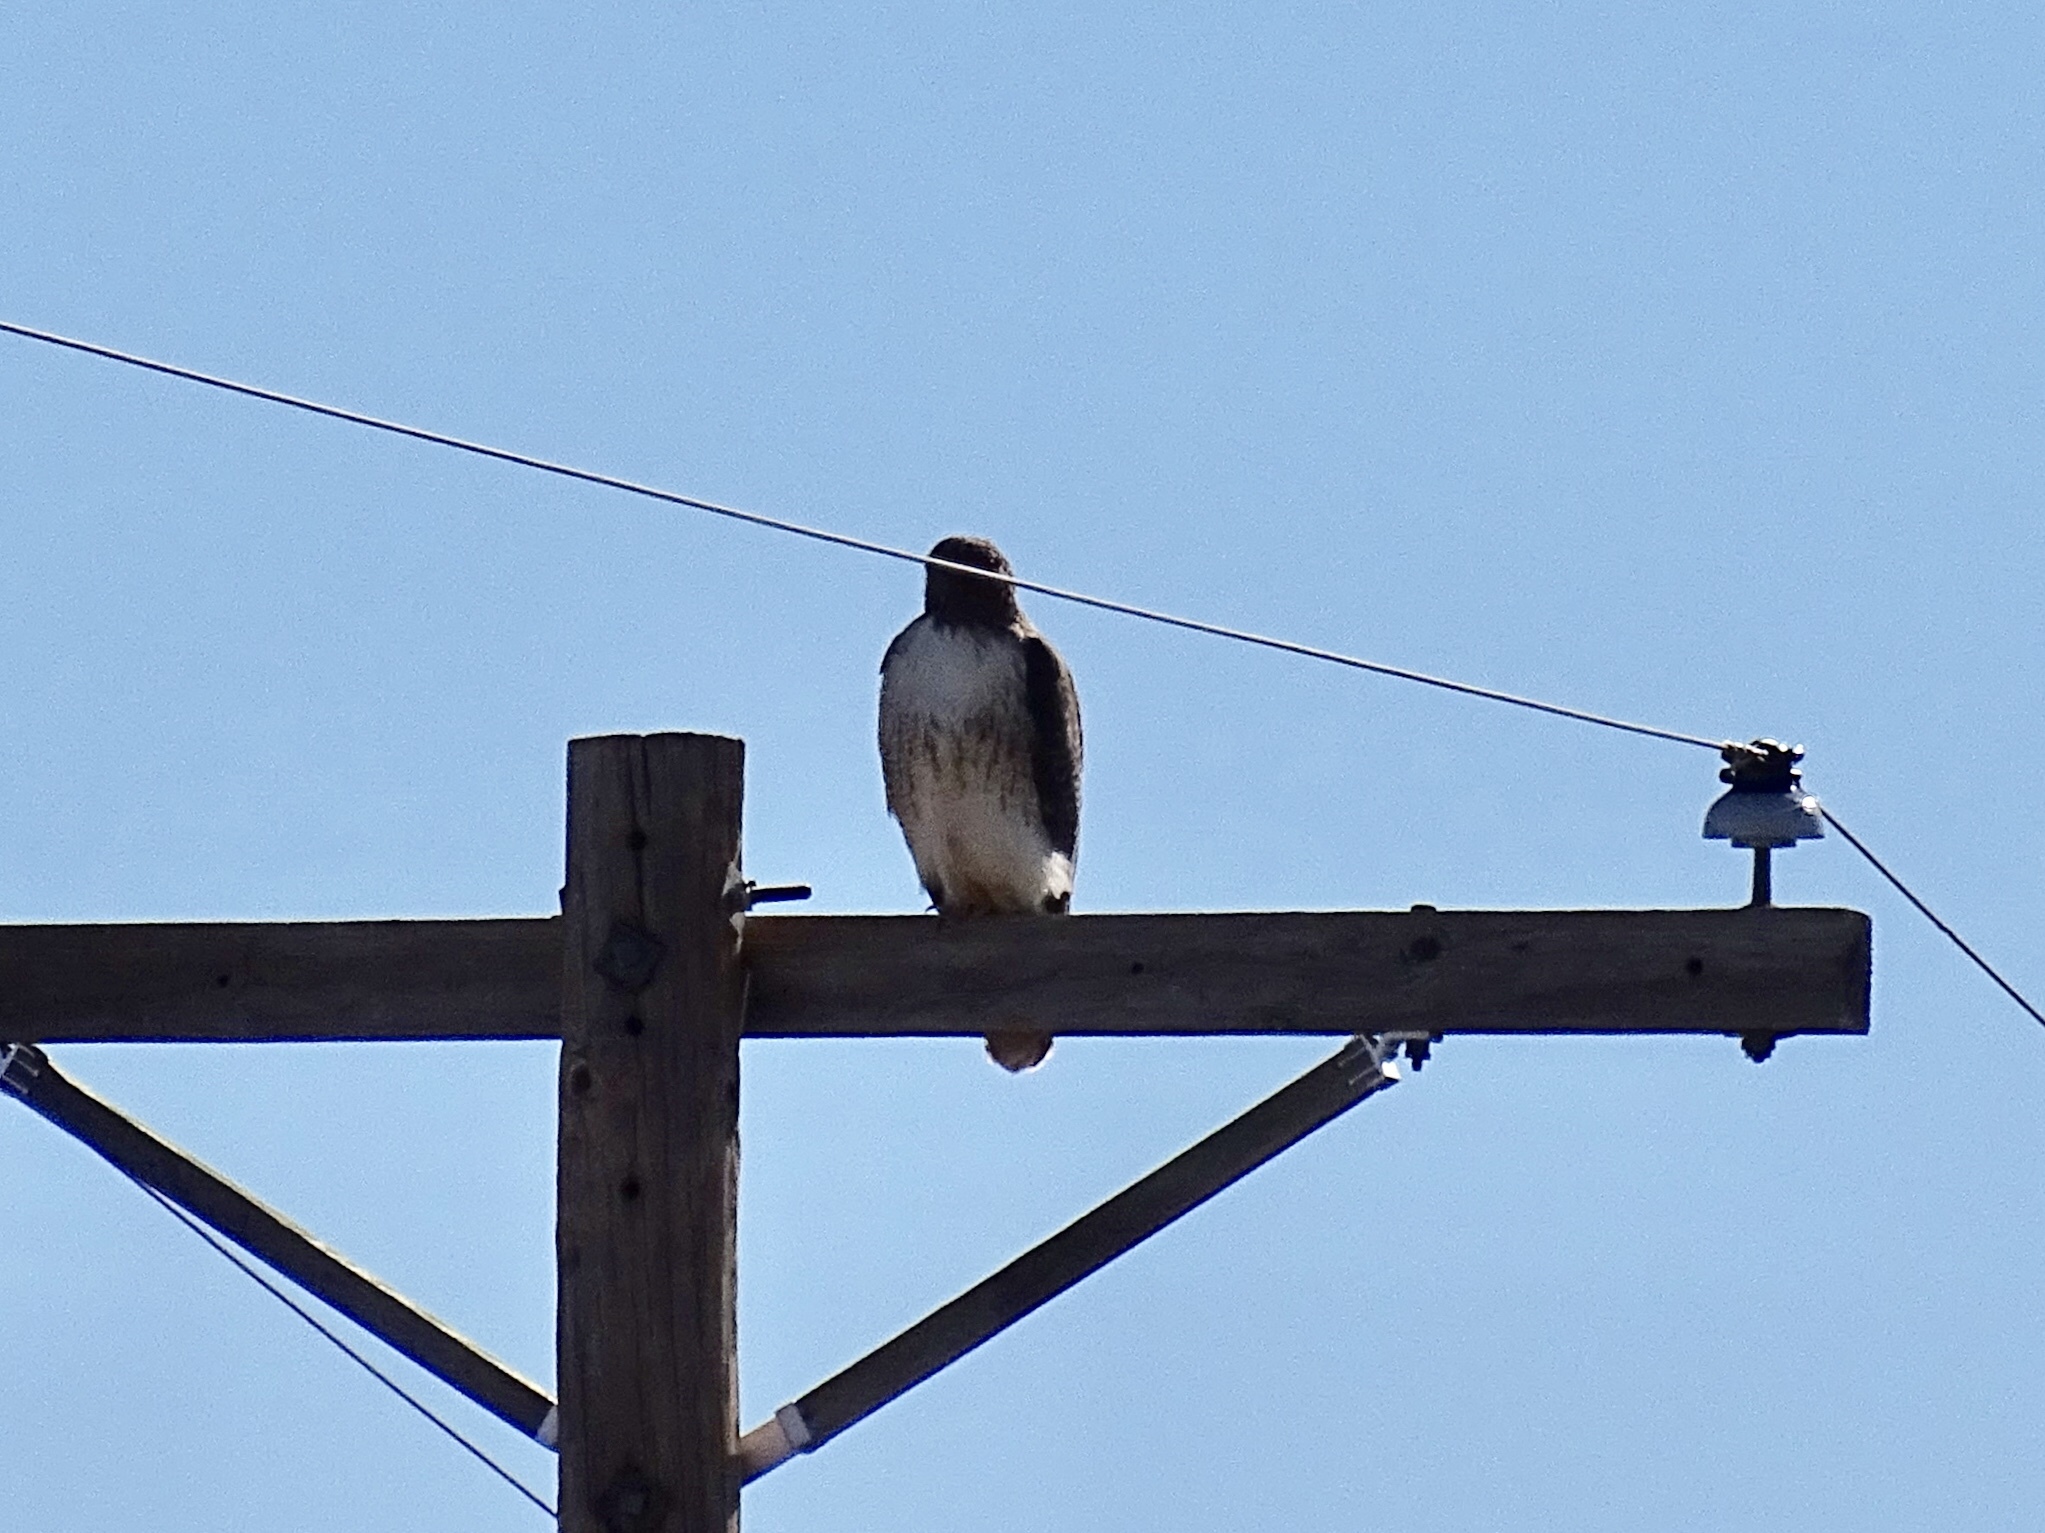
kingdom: Animalia
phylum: Chordata
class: Aves
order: Accipitriformes
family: Accipitridae
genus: Buteo
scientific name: Buteo jamaicensis
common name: Red-tailed hawk
